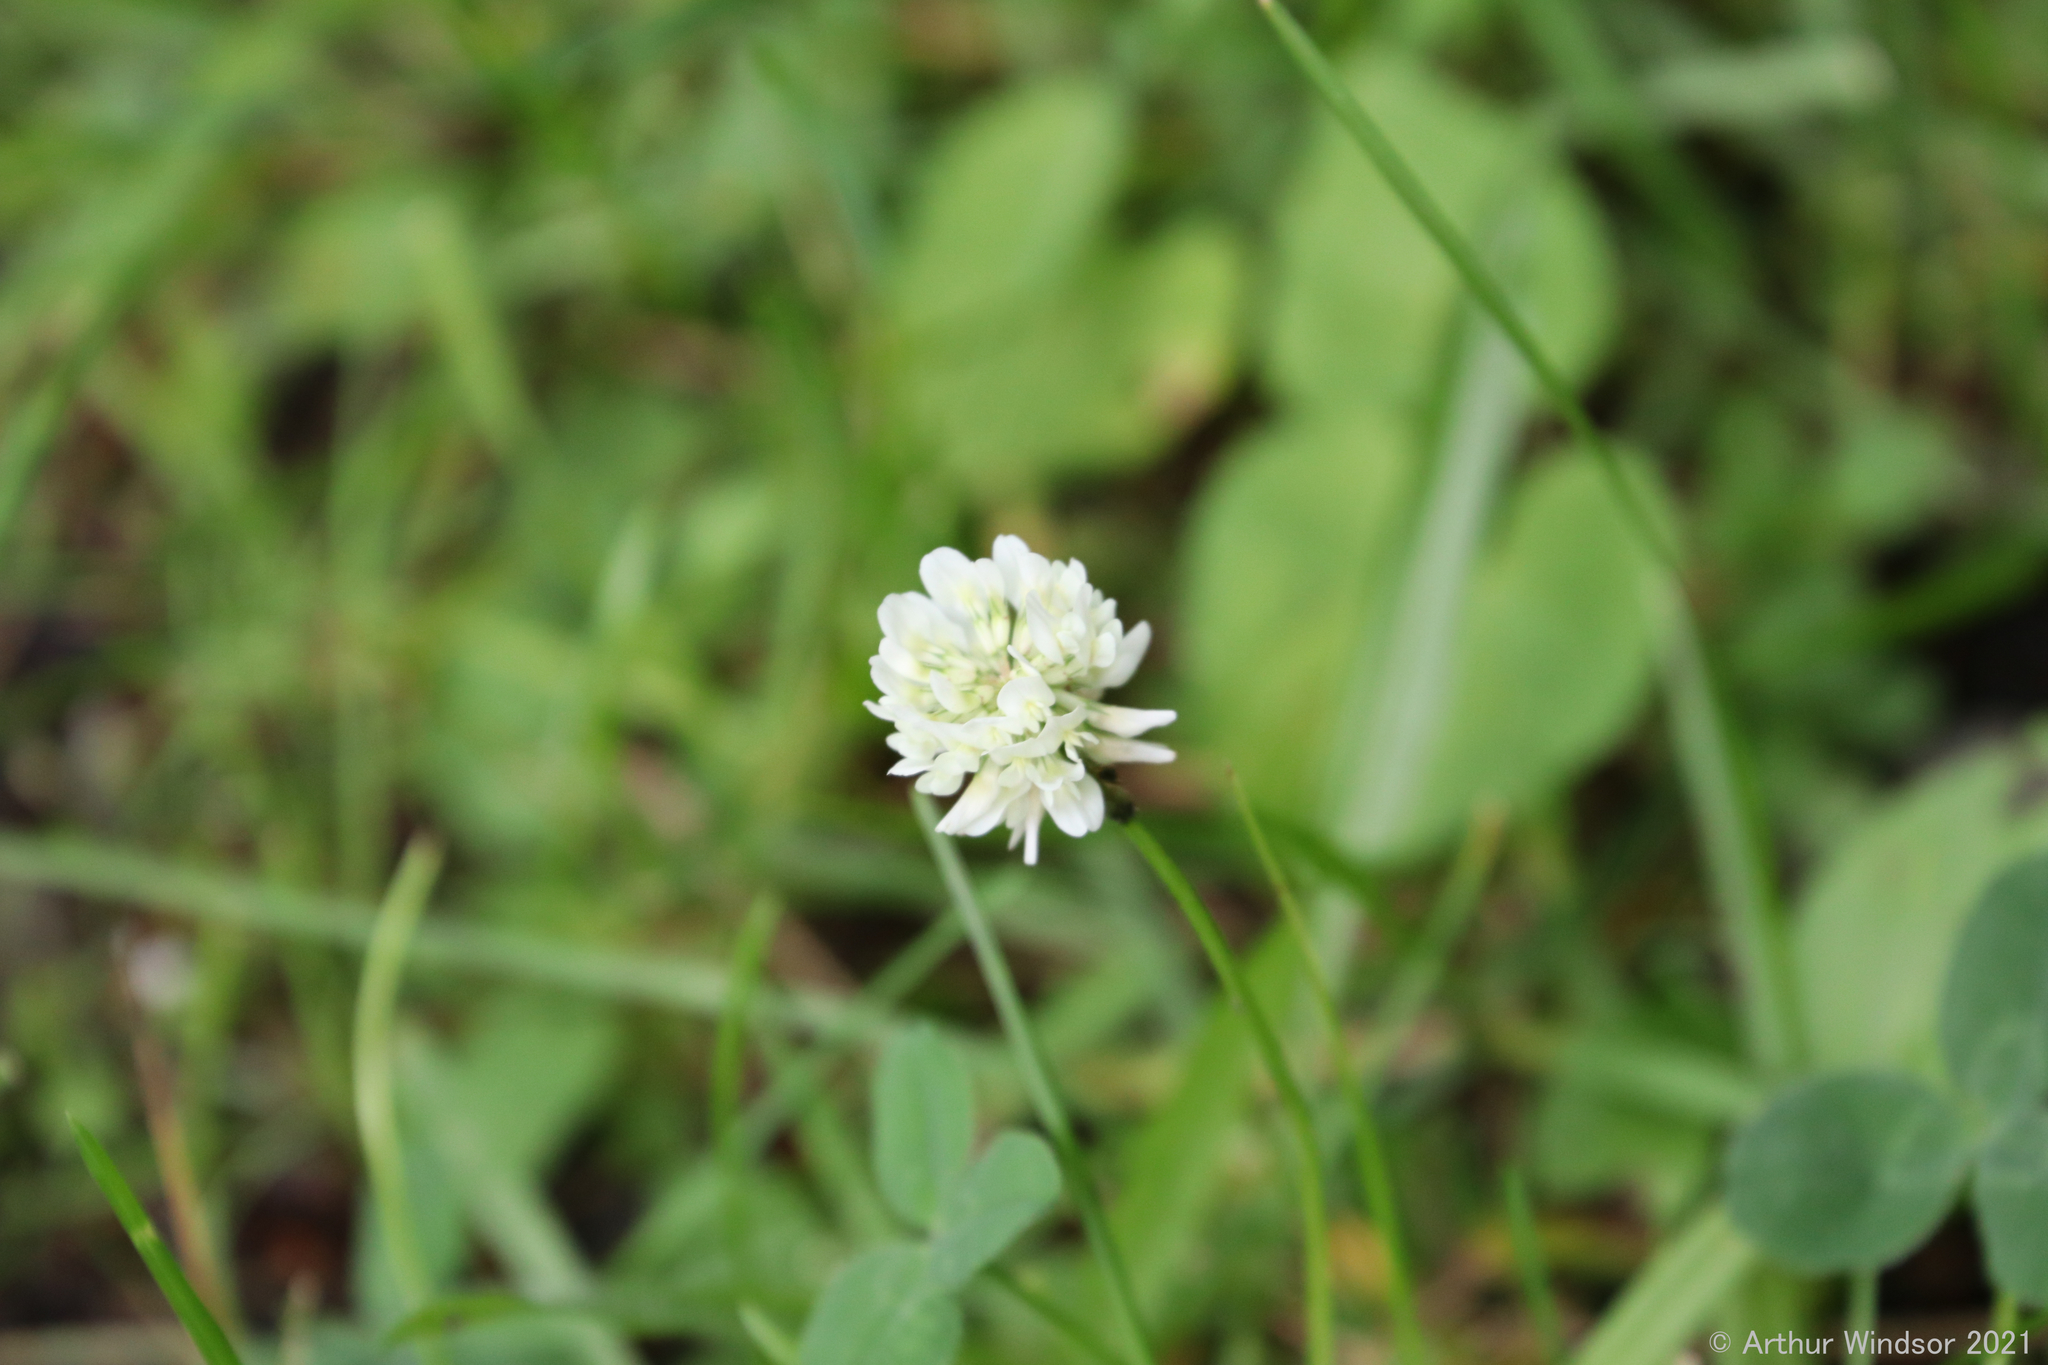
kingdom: Plantae
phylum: Tracheophyta
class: Magnoliopsida
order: Fabales
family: Fabaceae
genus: Trifolium
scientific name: Trifolium repens
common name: White clover
